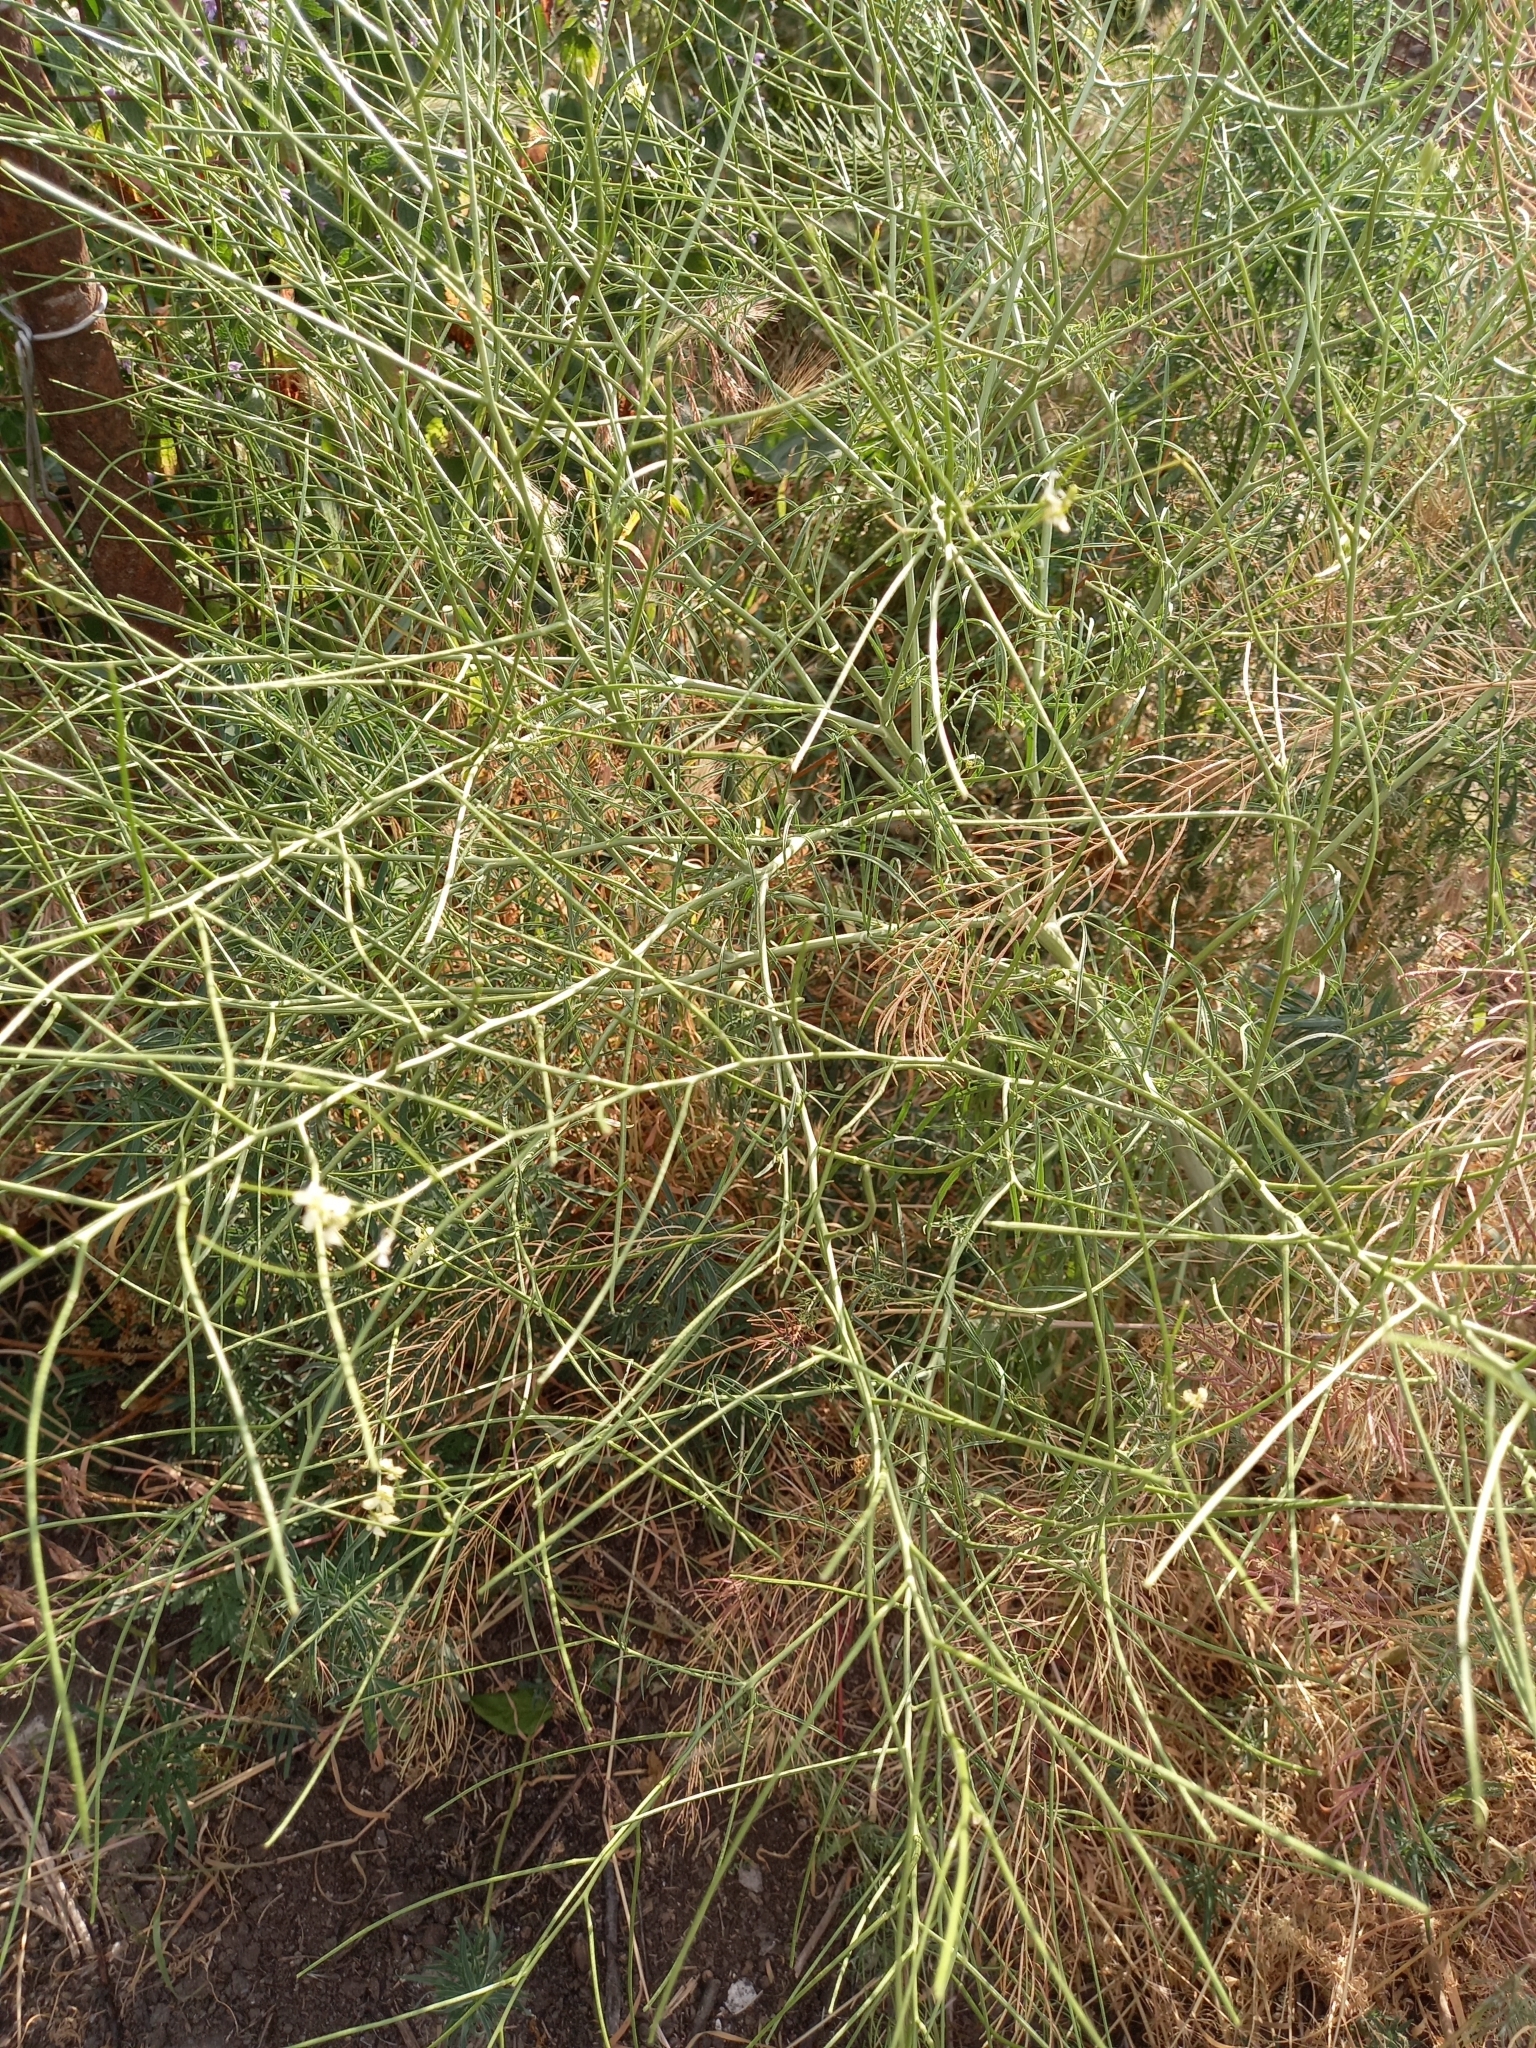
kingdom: Plantae
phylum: Tracheophyta
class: Magnoliopsida
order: Brassicales
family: Brassicaceae
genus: Sisymbrium
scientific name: Sisymbrium altissimum
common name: Tall rocket
